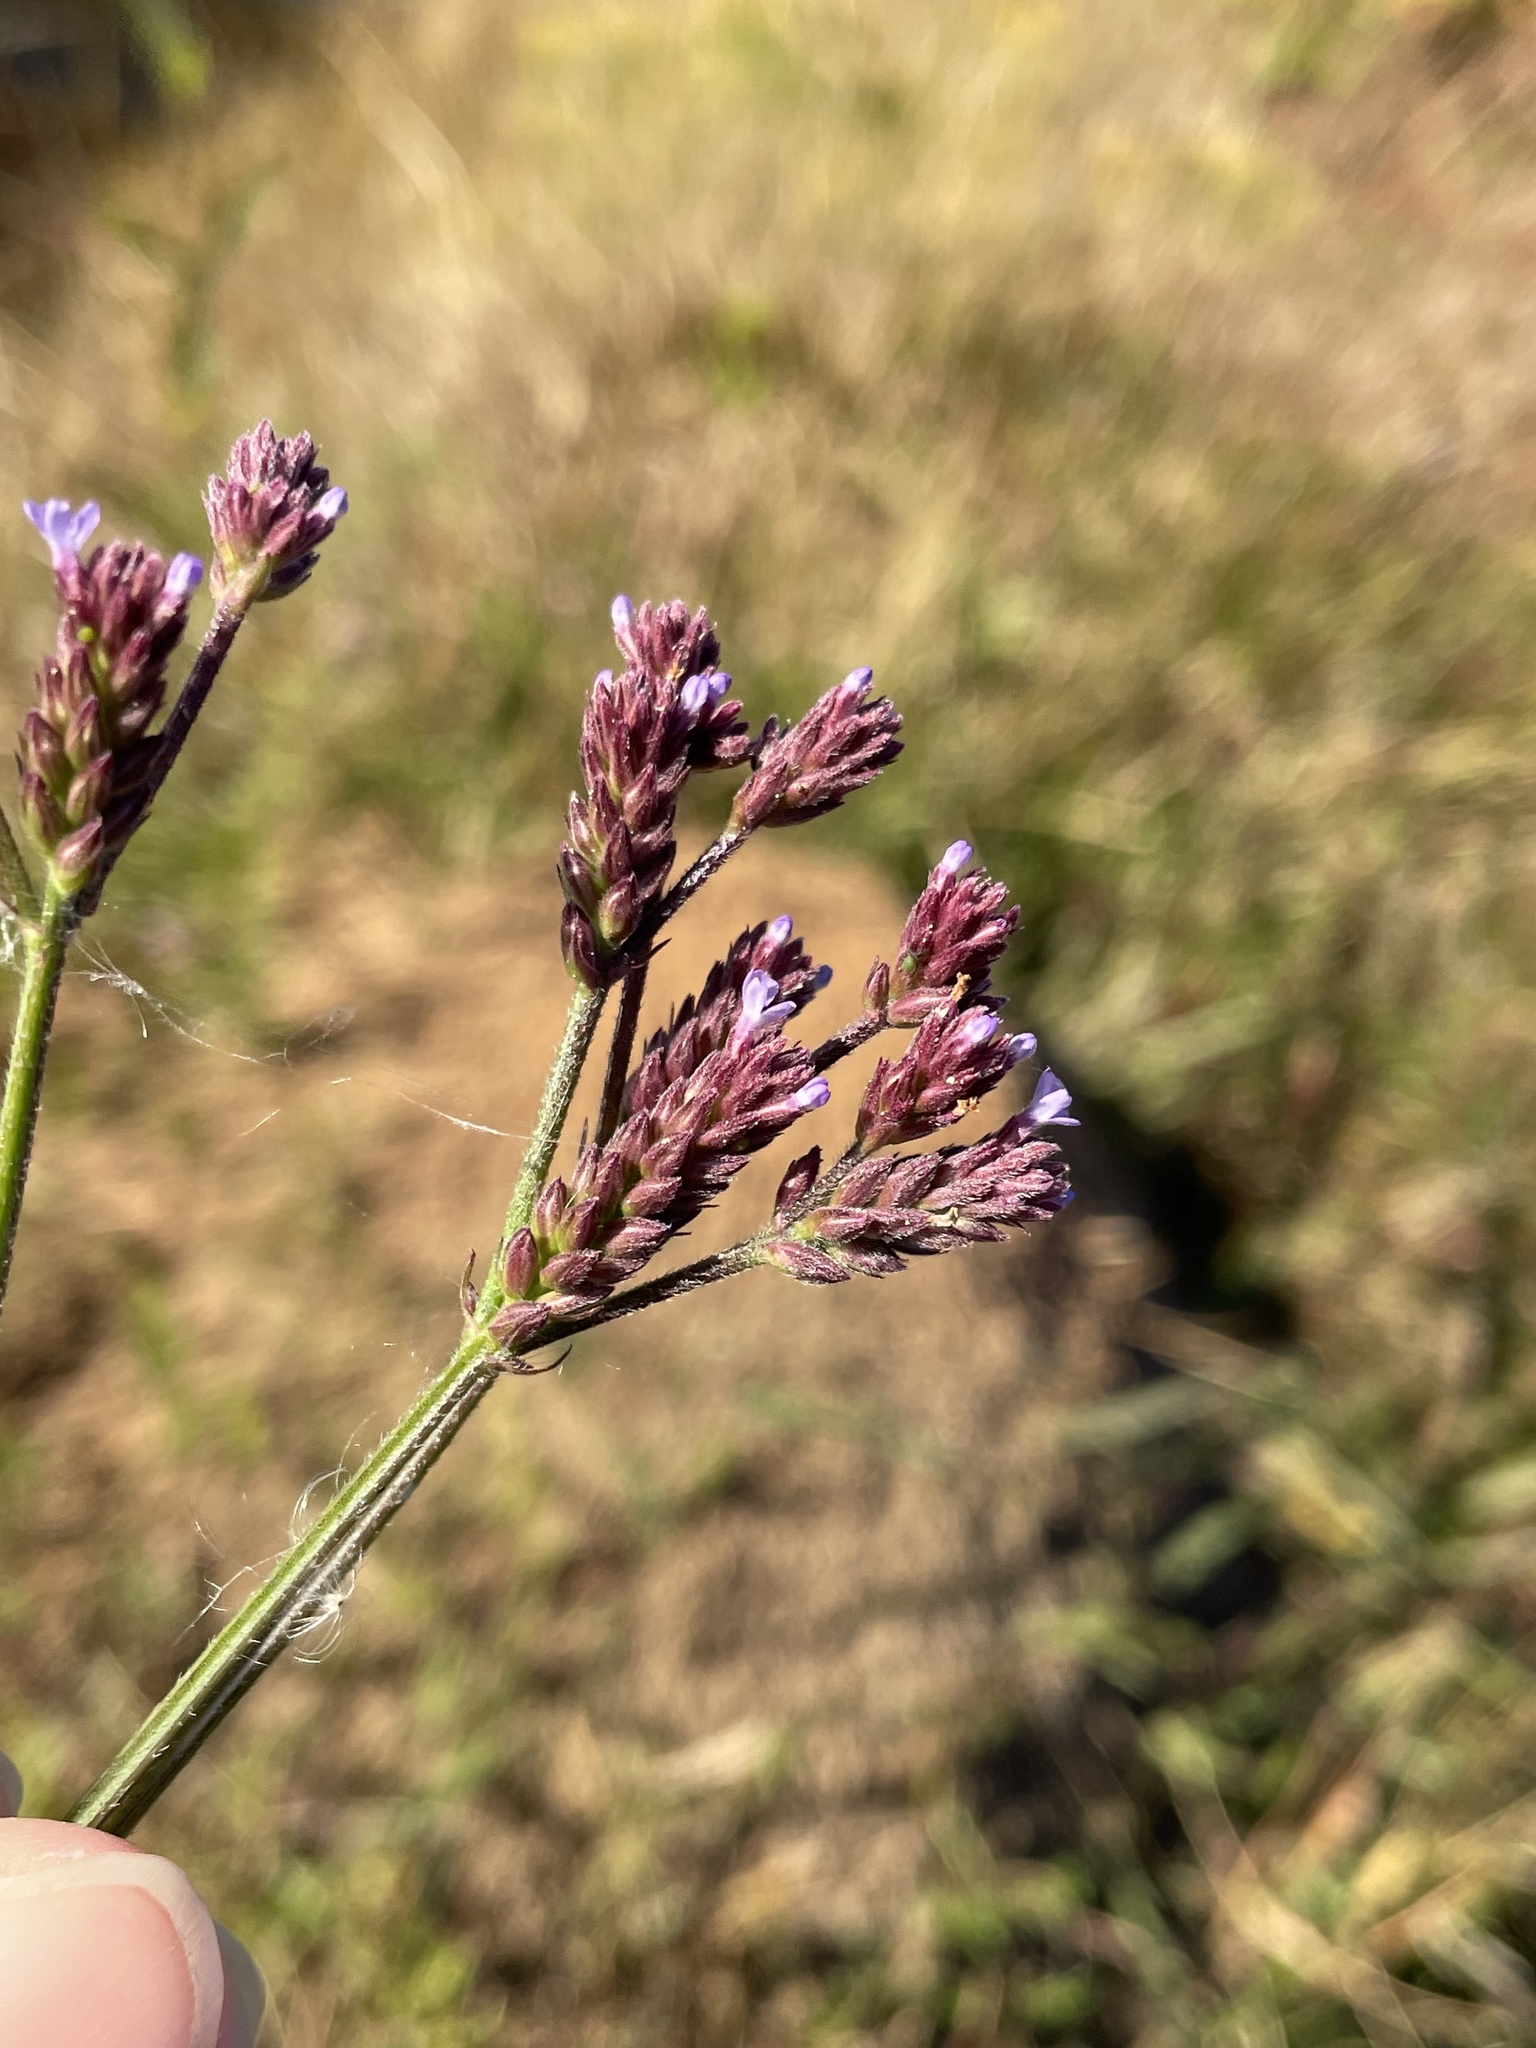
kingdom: Plantae
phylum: Tracheophyta
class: Magnoliopsida
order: Lamiales
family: Verbenaceae
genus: Verbena
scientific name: Verbena brasiliensis
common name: Brazilian vervain
